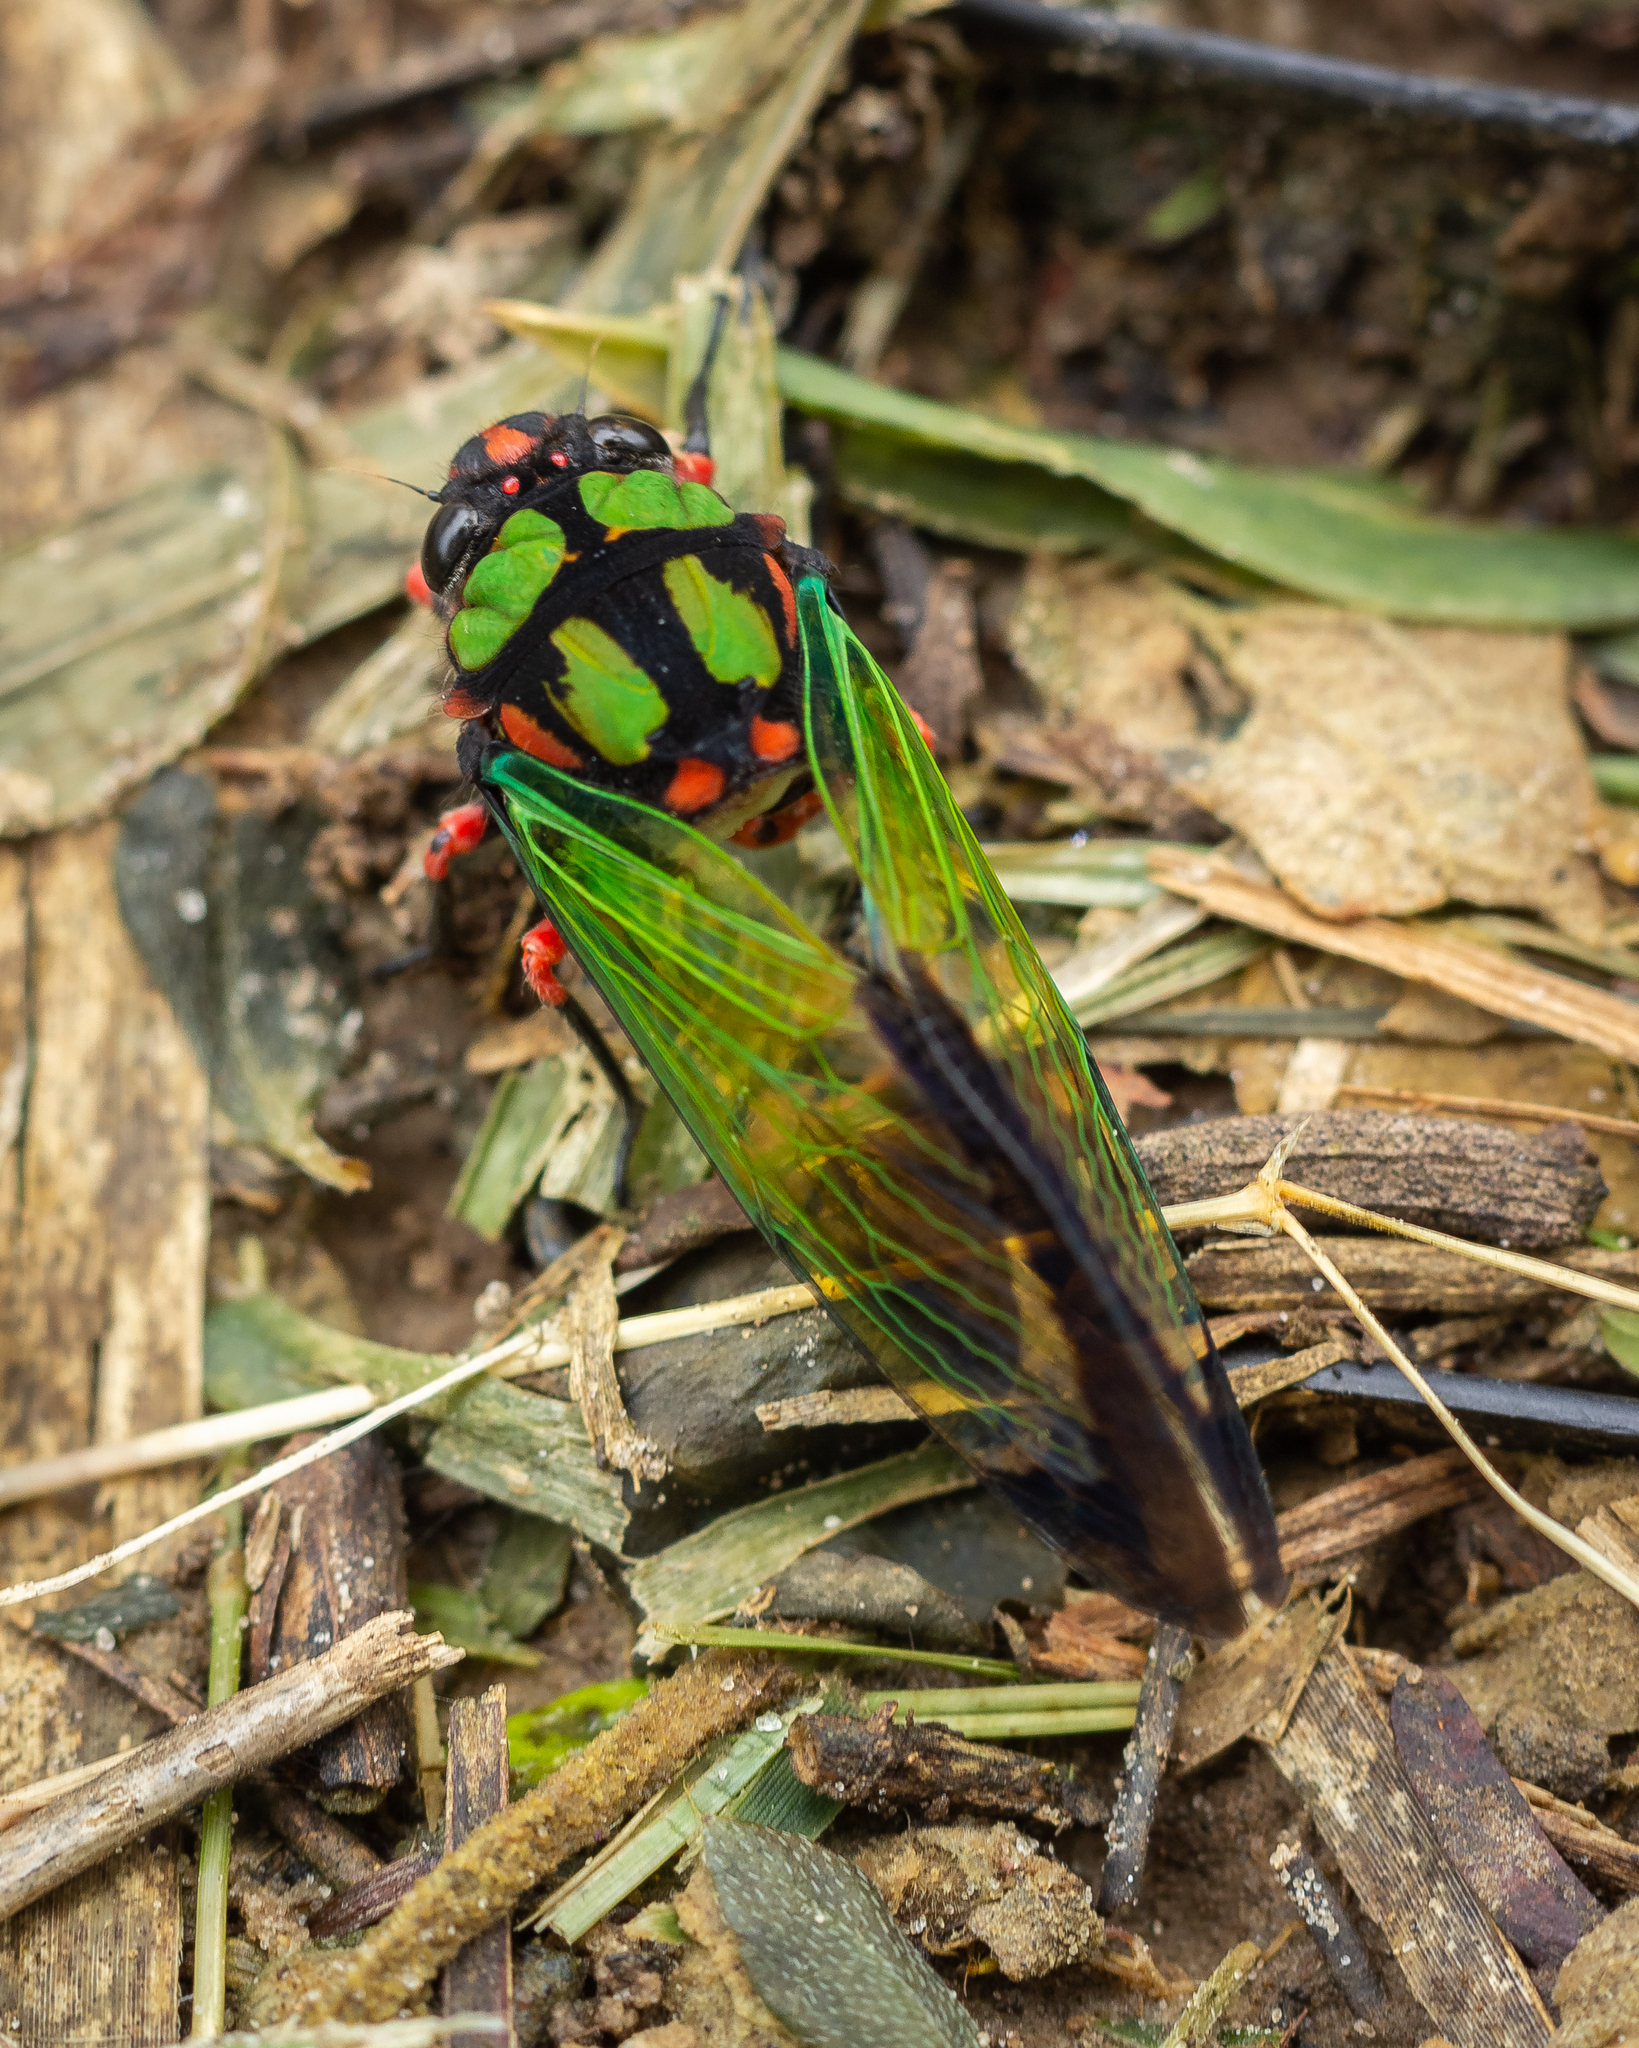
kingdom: Animalia
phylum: Arthropoda
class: Insecta
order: Hemiptera
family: Cicadidae
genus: Carineta
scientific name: Carineta diardi
